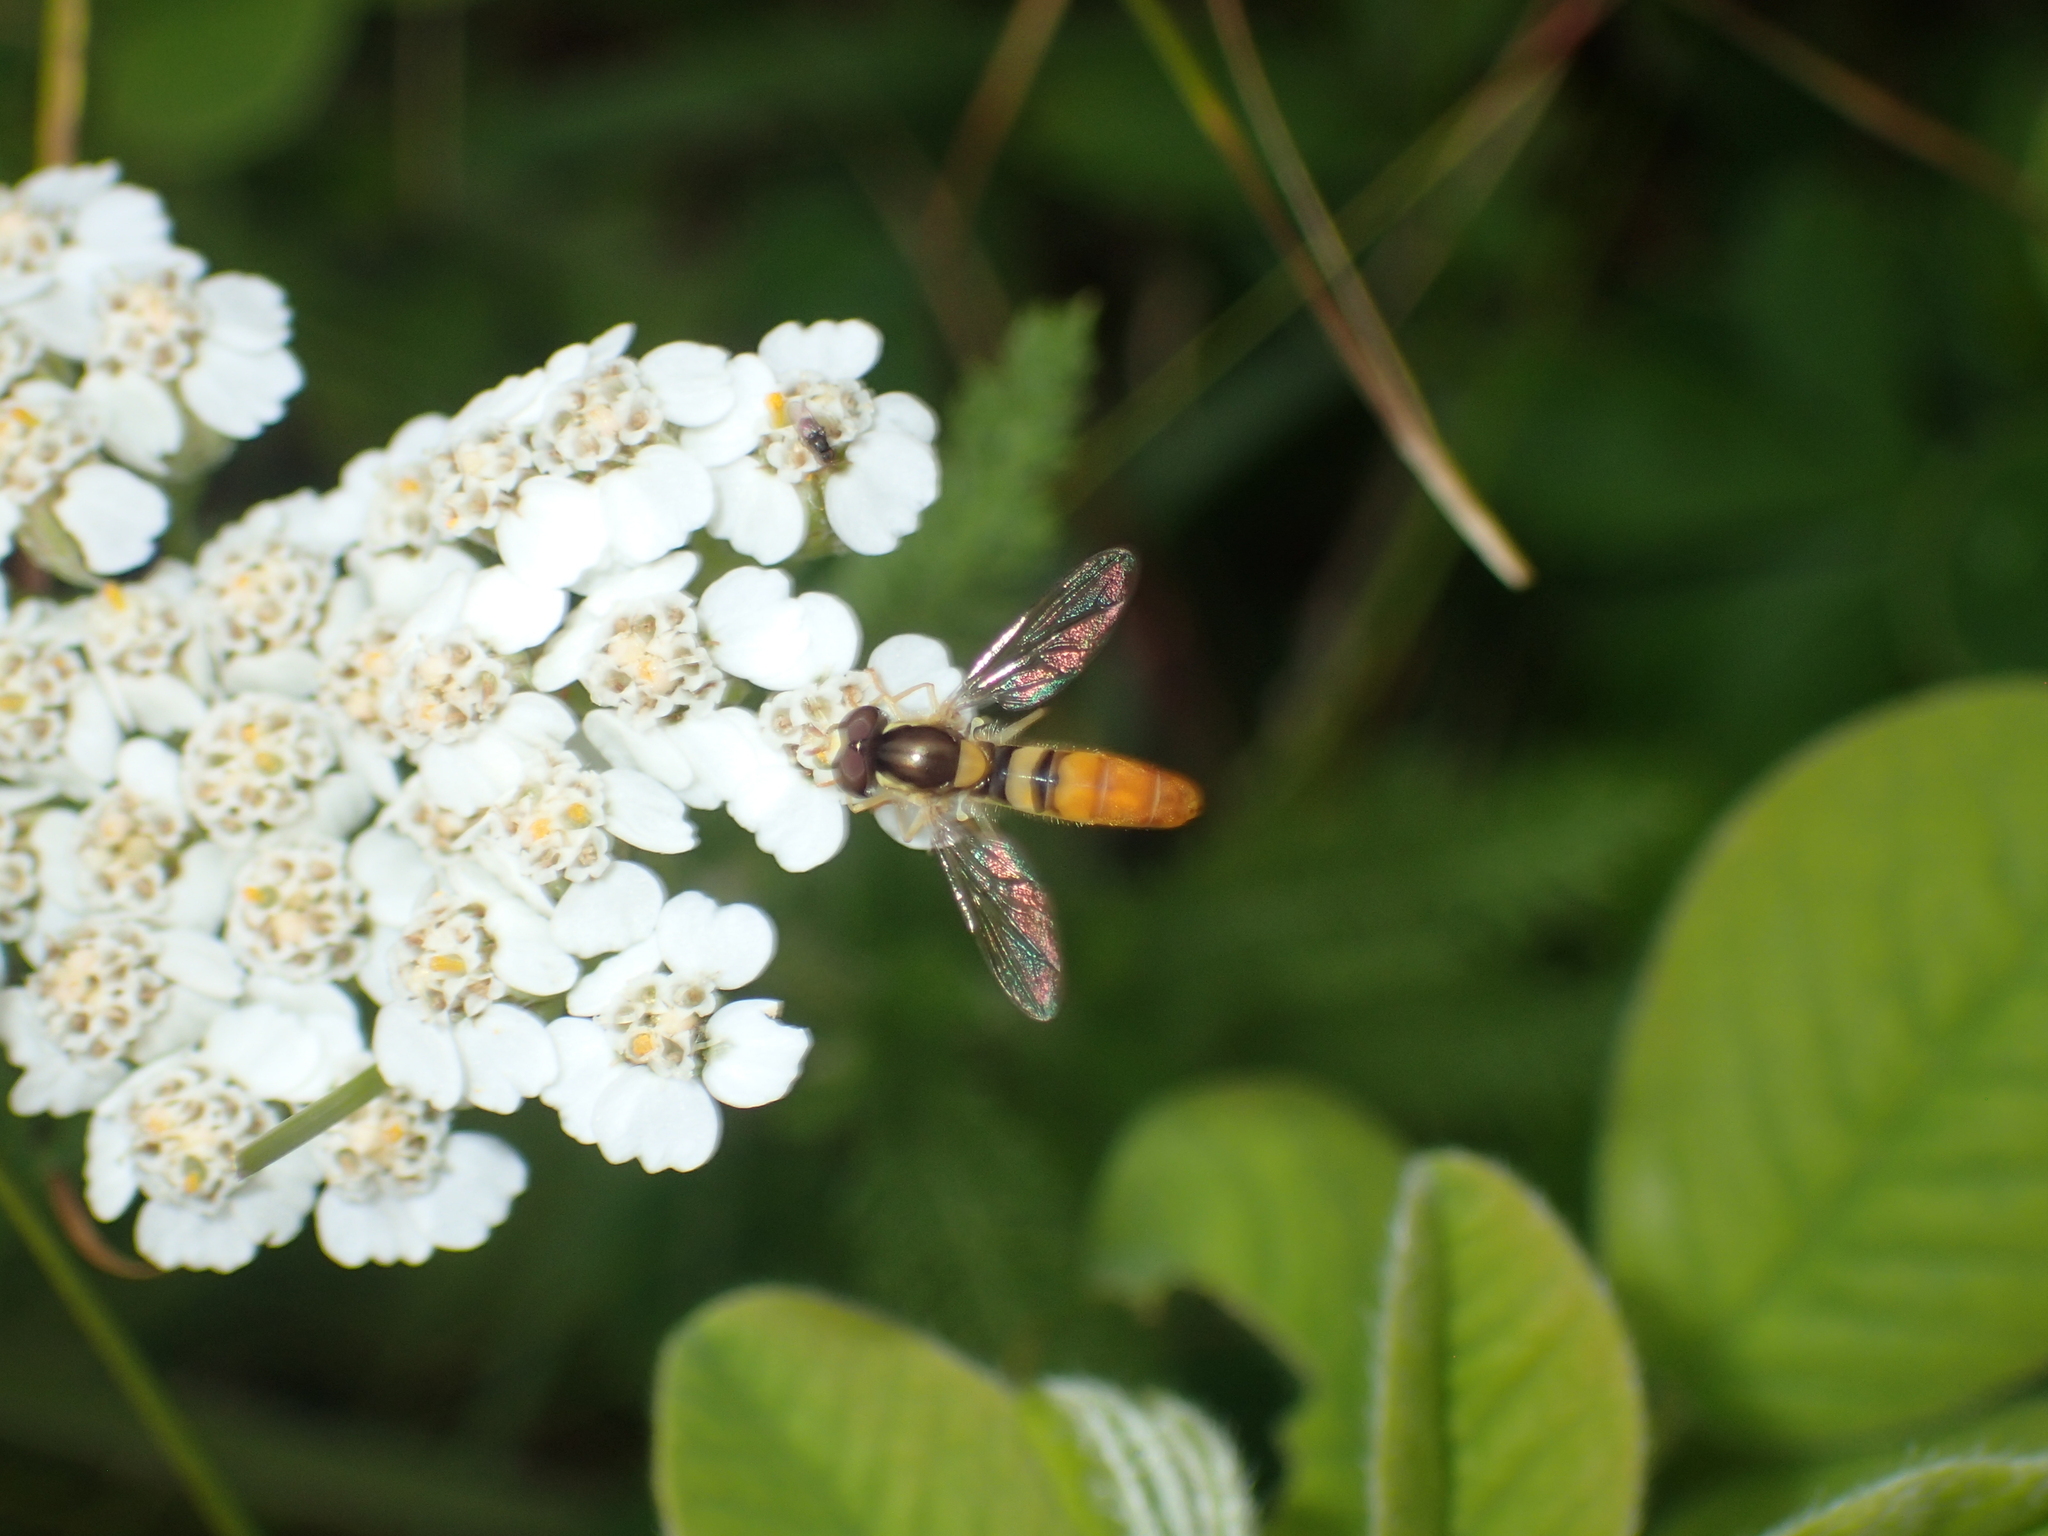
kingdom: Animalia
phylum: Arthropoda
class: Insecta
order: Diptera
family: Syrphidae
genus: Sphaerophoria
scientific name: Sphaerophoria contigua
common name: Tufted globetail
